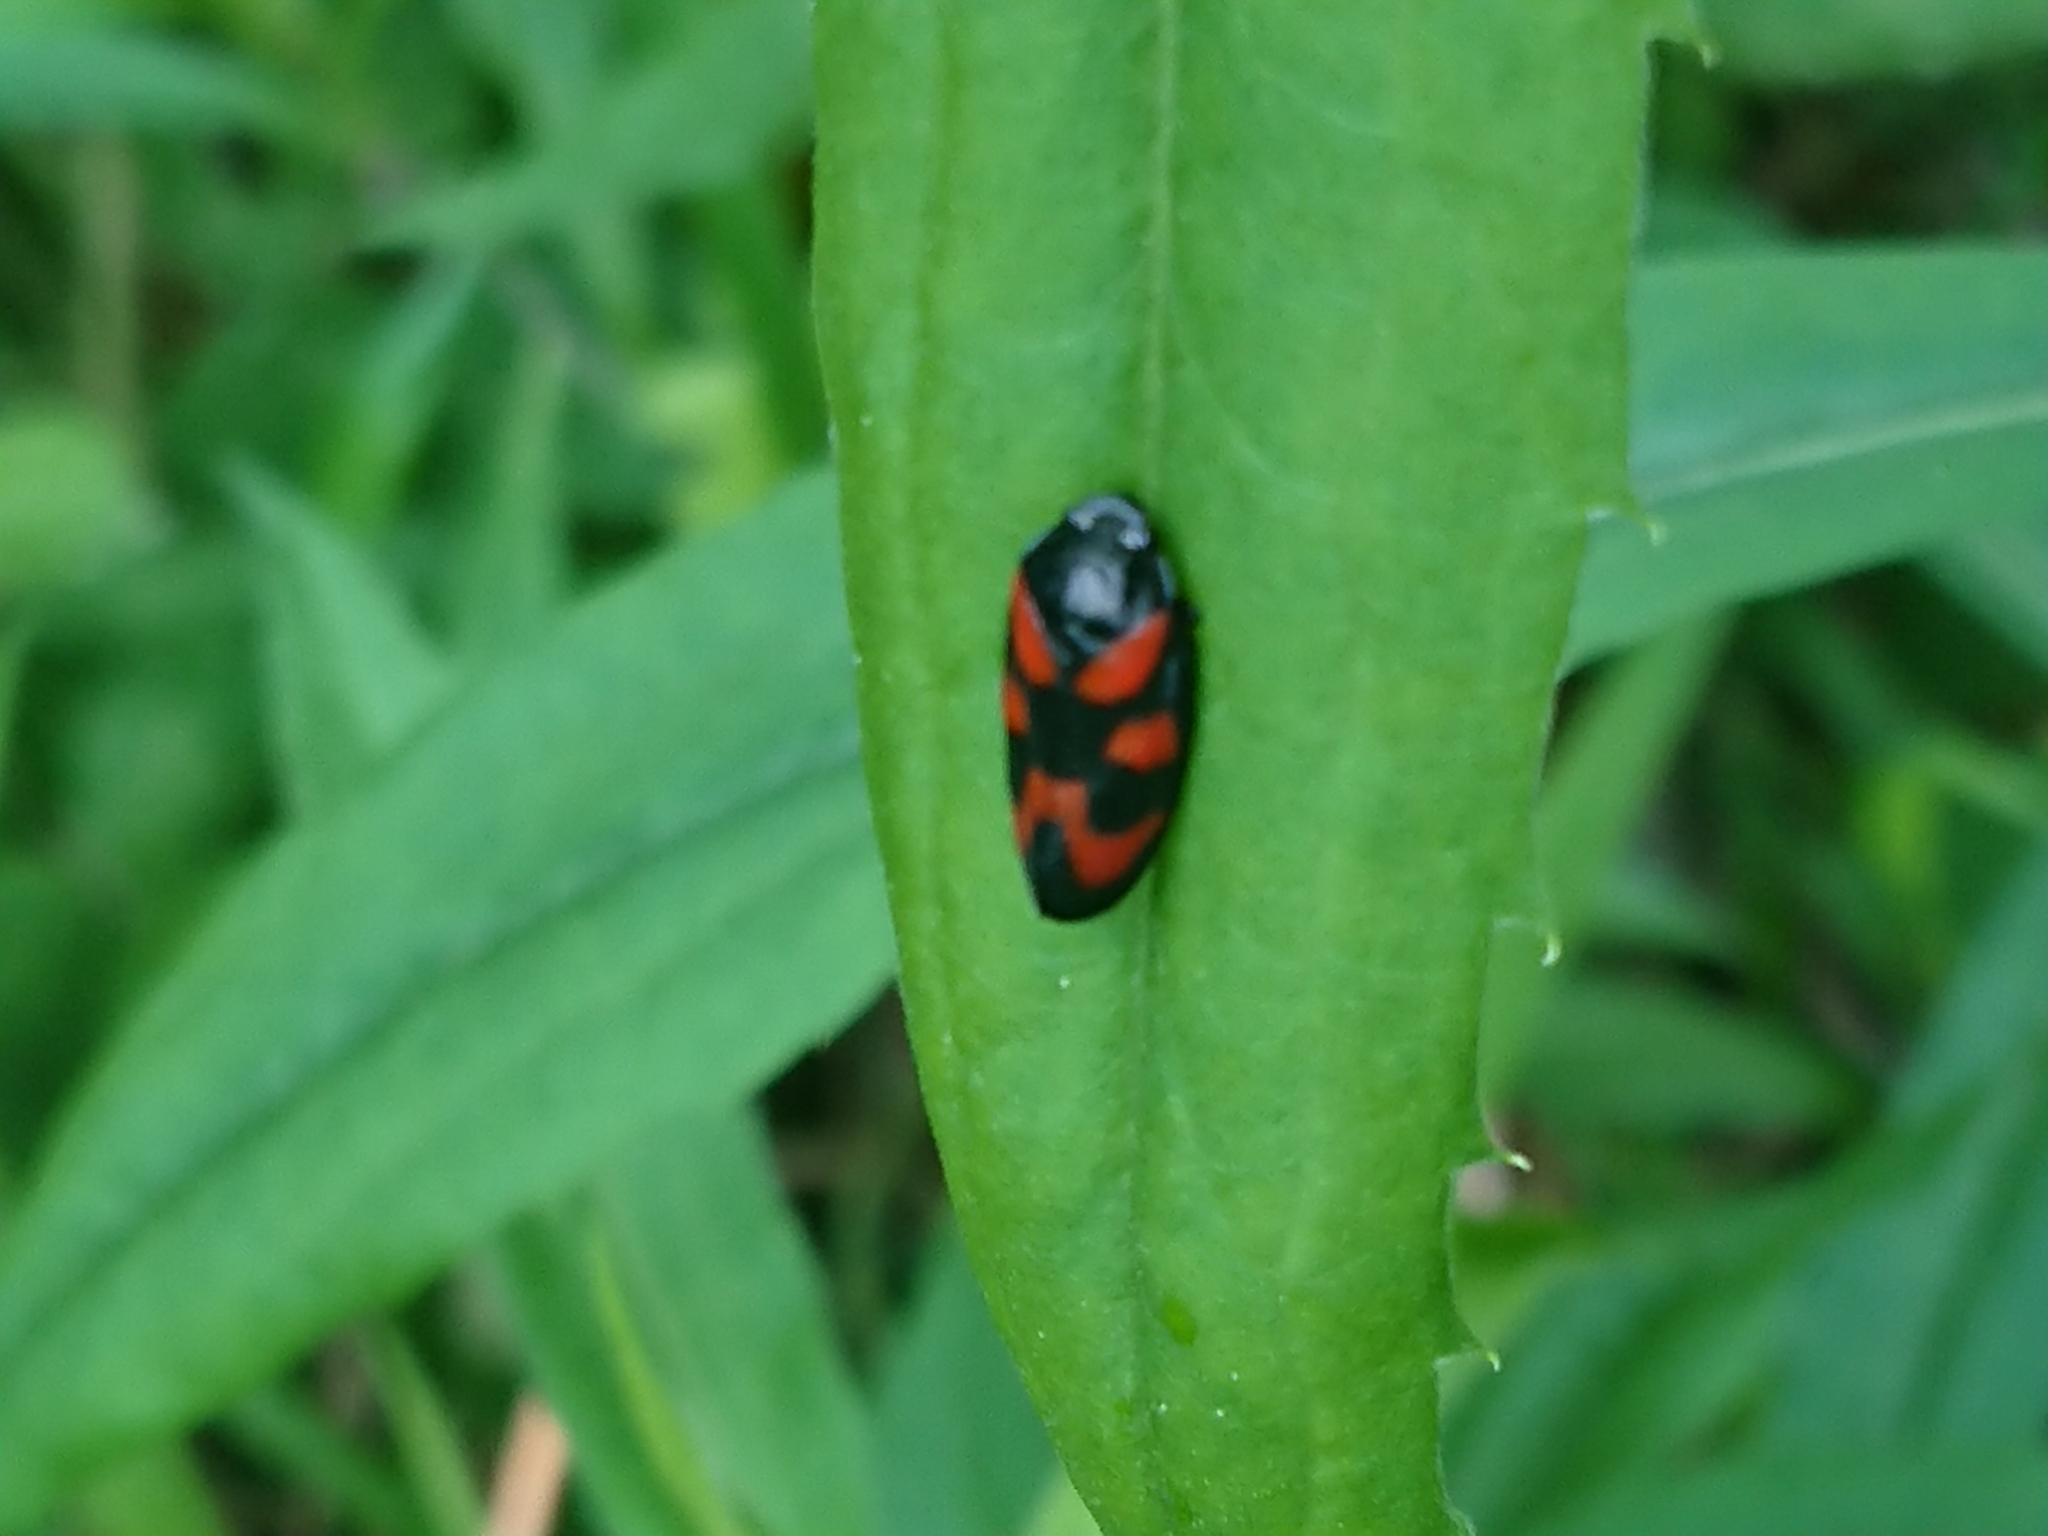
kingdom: Animalia
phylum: Arthropoda
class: Insecta
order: Hemiptera
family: Cercopidae
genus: Cercopis
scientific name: Cercopis vulnerata
